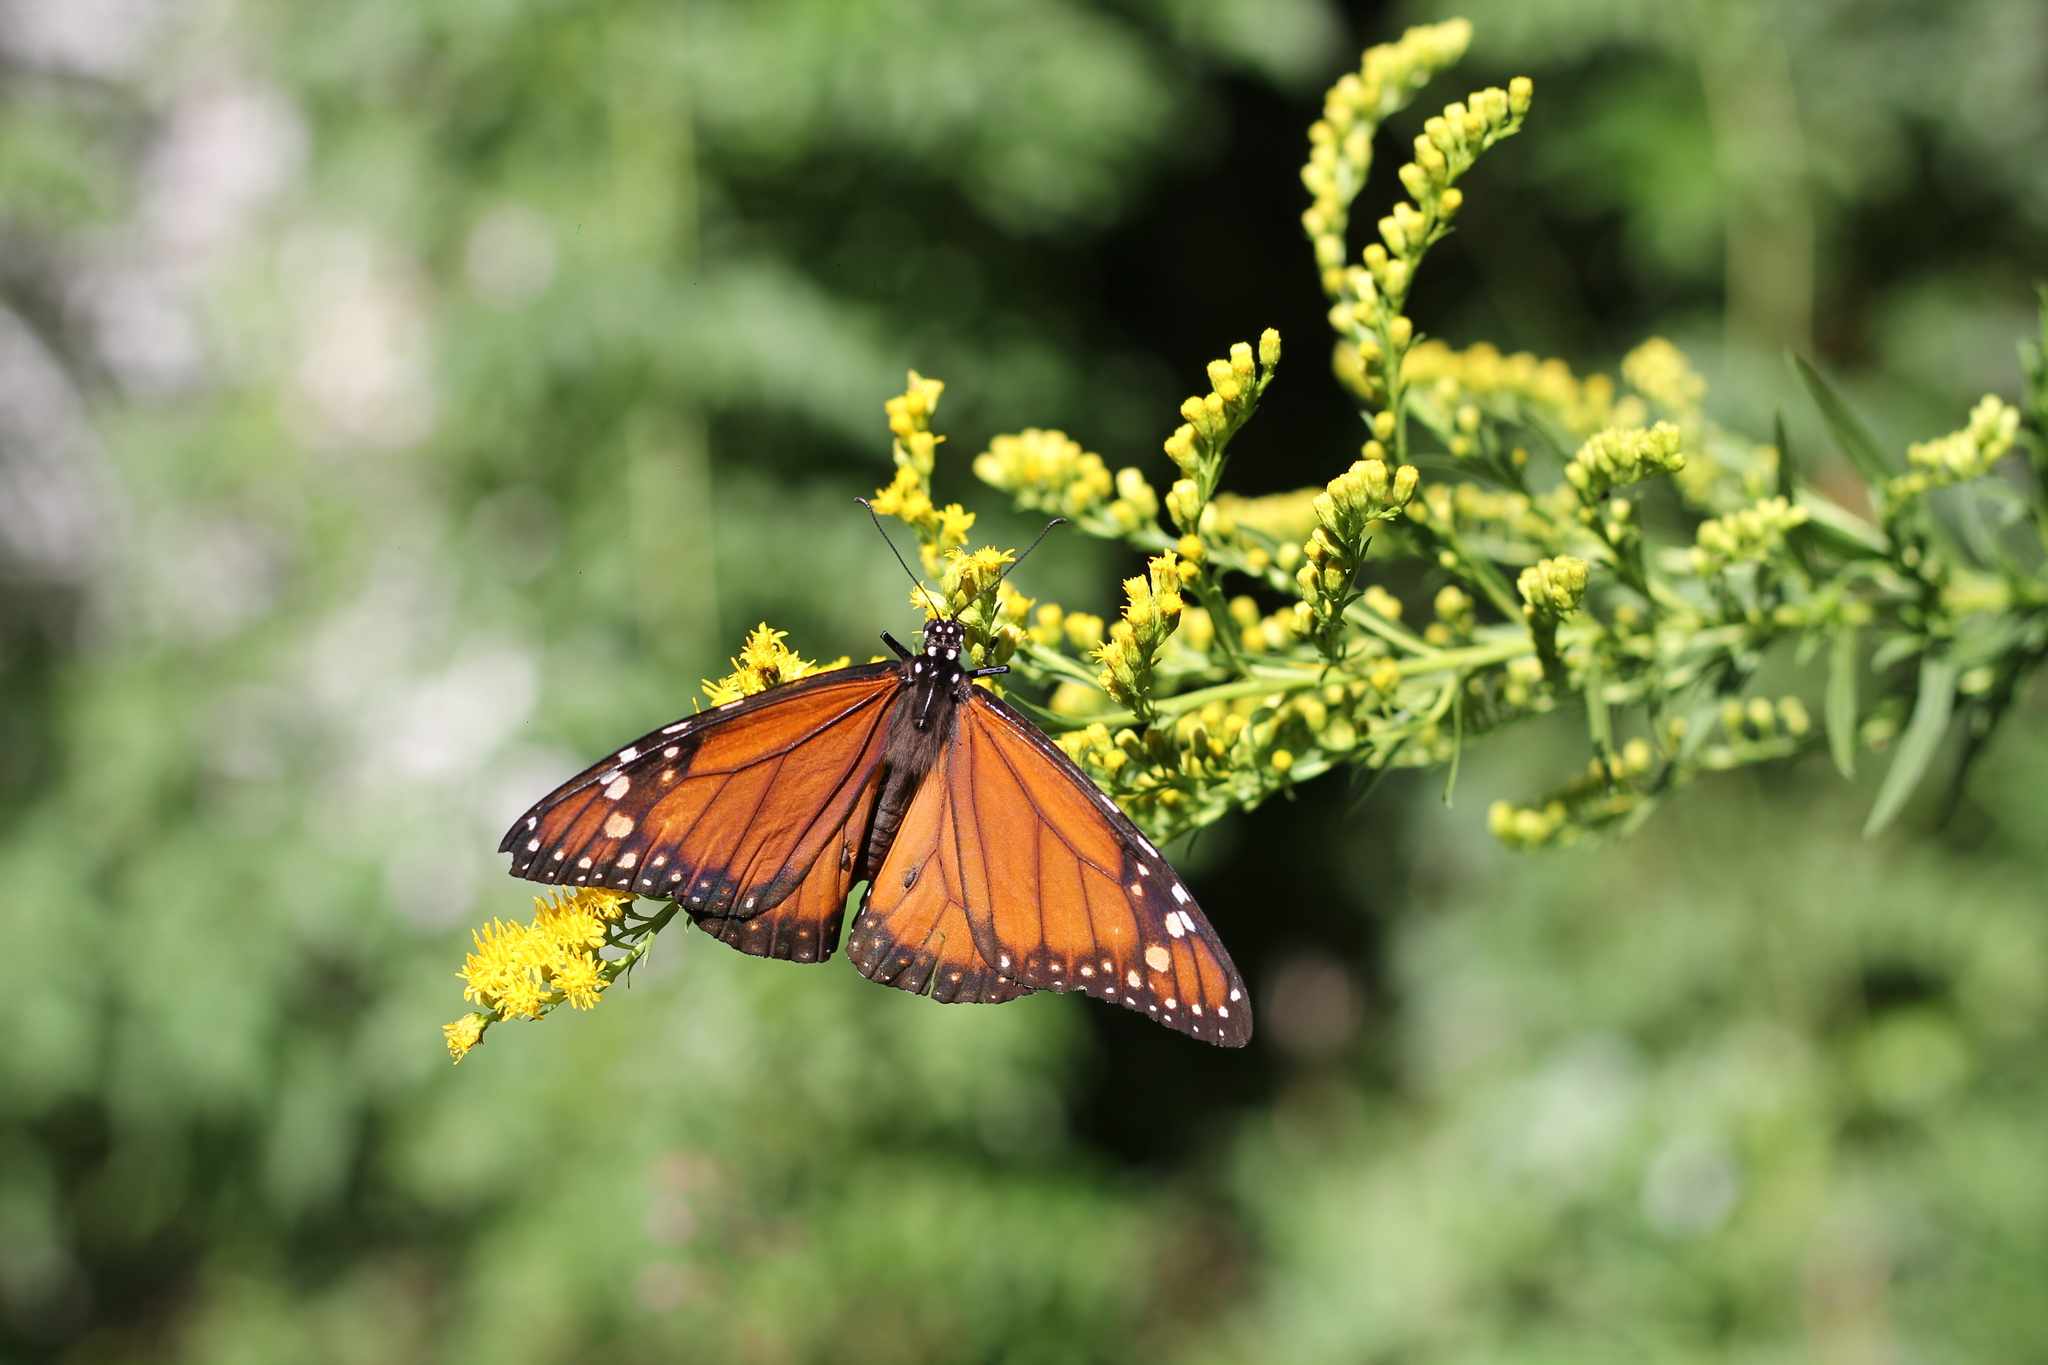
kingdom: Animalia
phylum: Arthropoda
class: Insecta
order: Lepidoptera
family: Nymphalidae
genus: Danaus
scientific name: Danaus erippus
